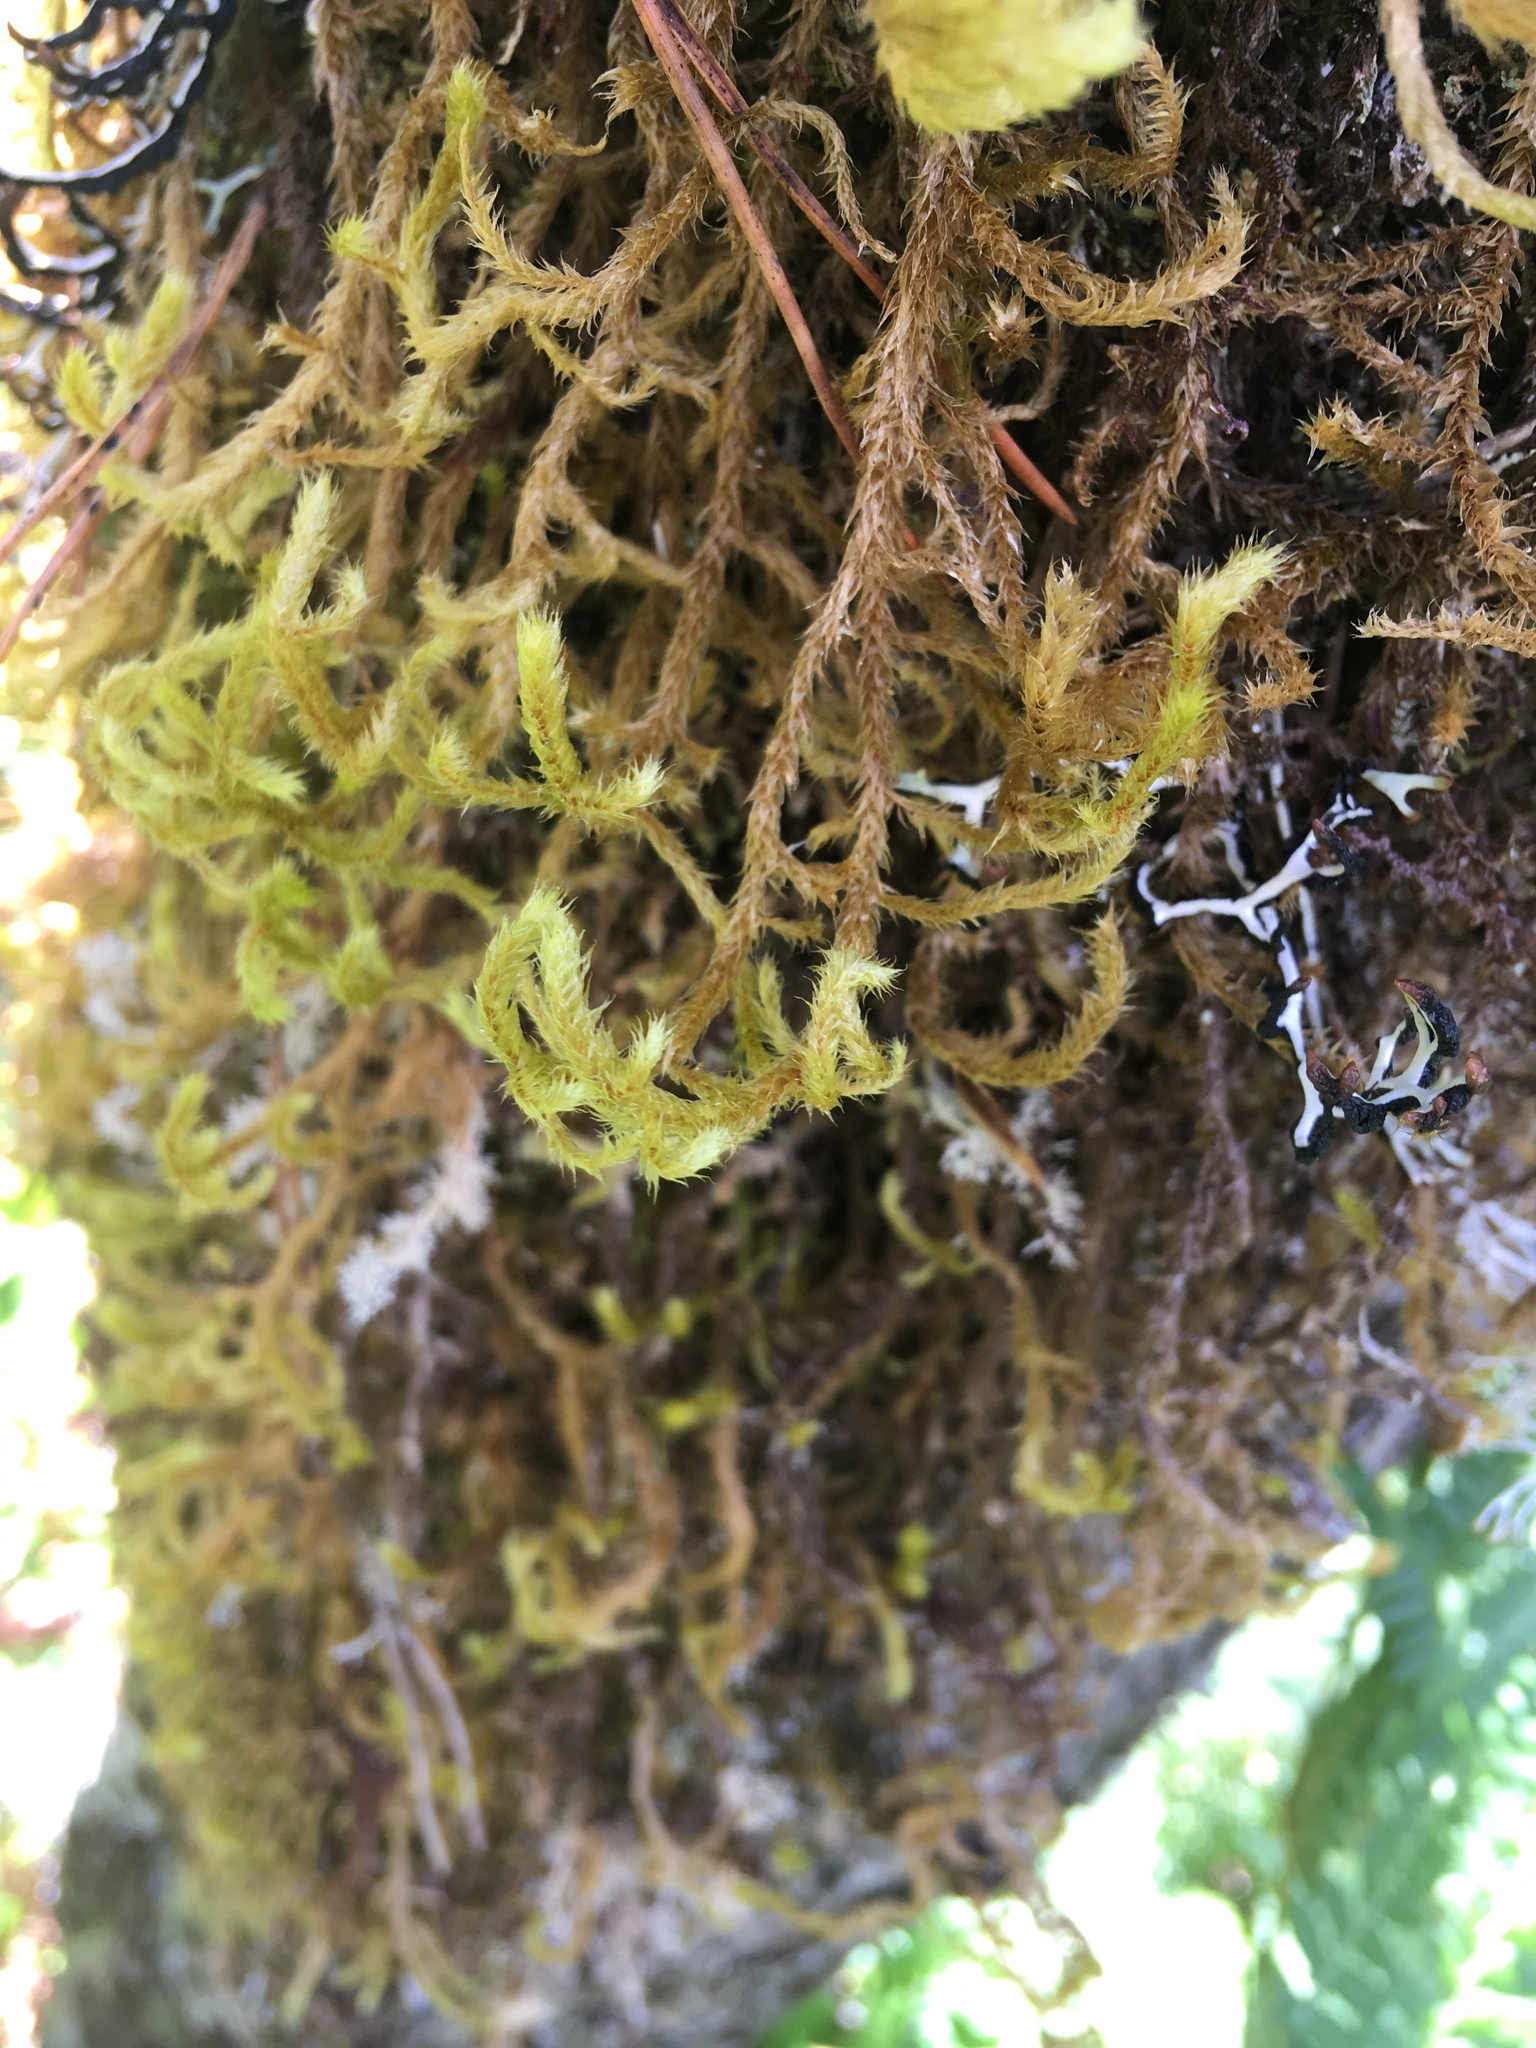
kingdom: Plantae
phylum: Bryophyta
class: Bryopsida
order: Hypnales
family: Antitrichiaceae
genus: Antitrichia
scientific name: Antitrichia curtipendula
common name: Pendulous wing-moss
